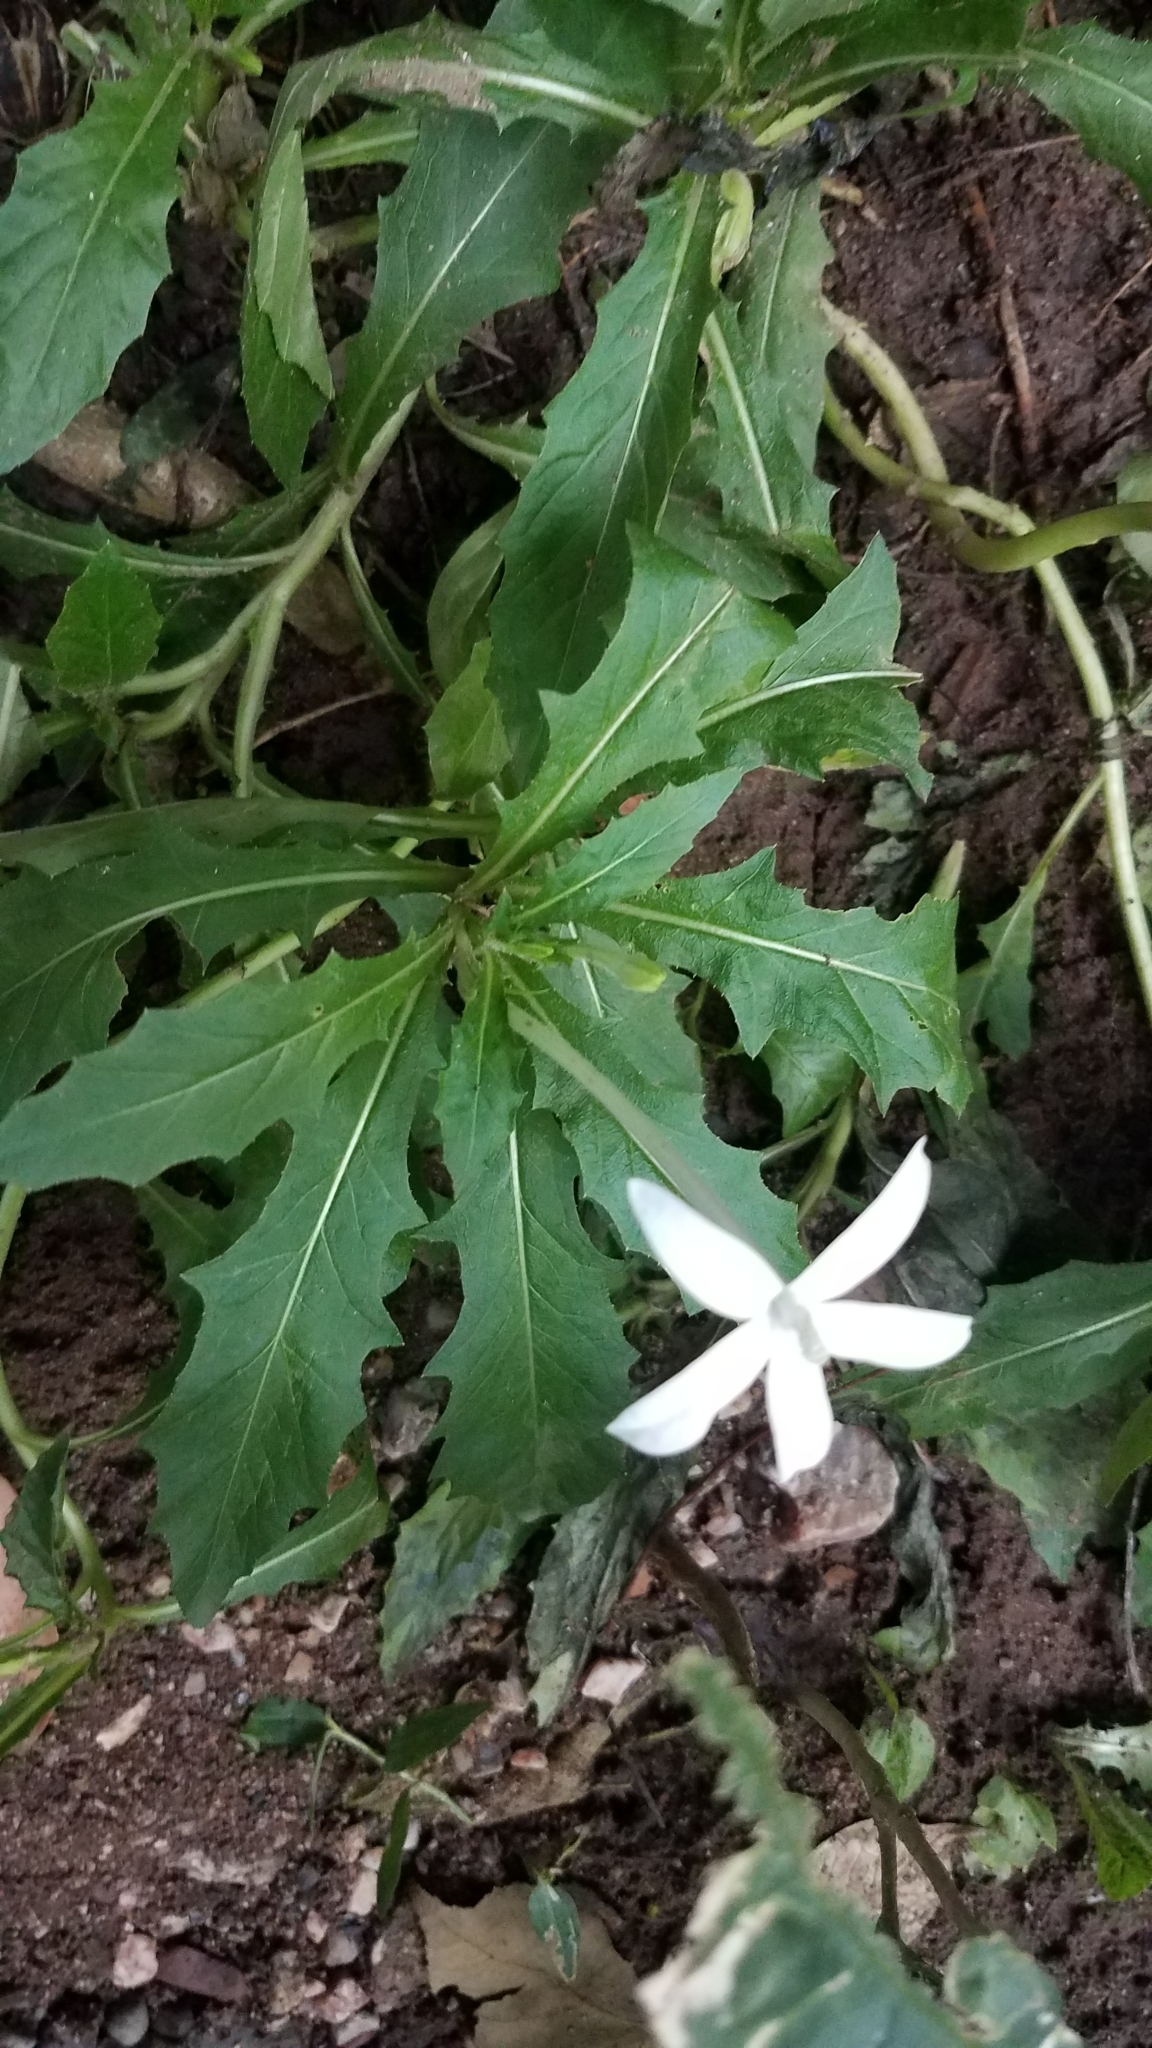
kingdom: Plantae
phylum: Tracheophyta
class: Magnoliopsida
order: Asterales
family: Campanulaceae
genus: Hippobroma
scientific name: Hippobroma longiflora
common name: Madamfate
